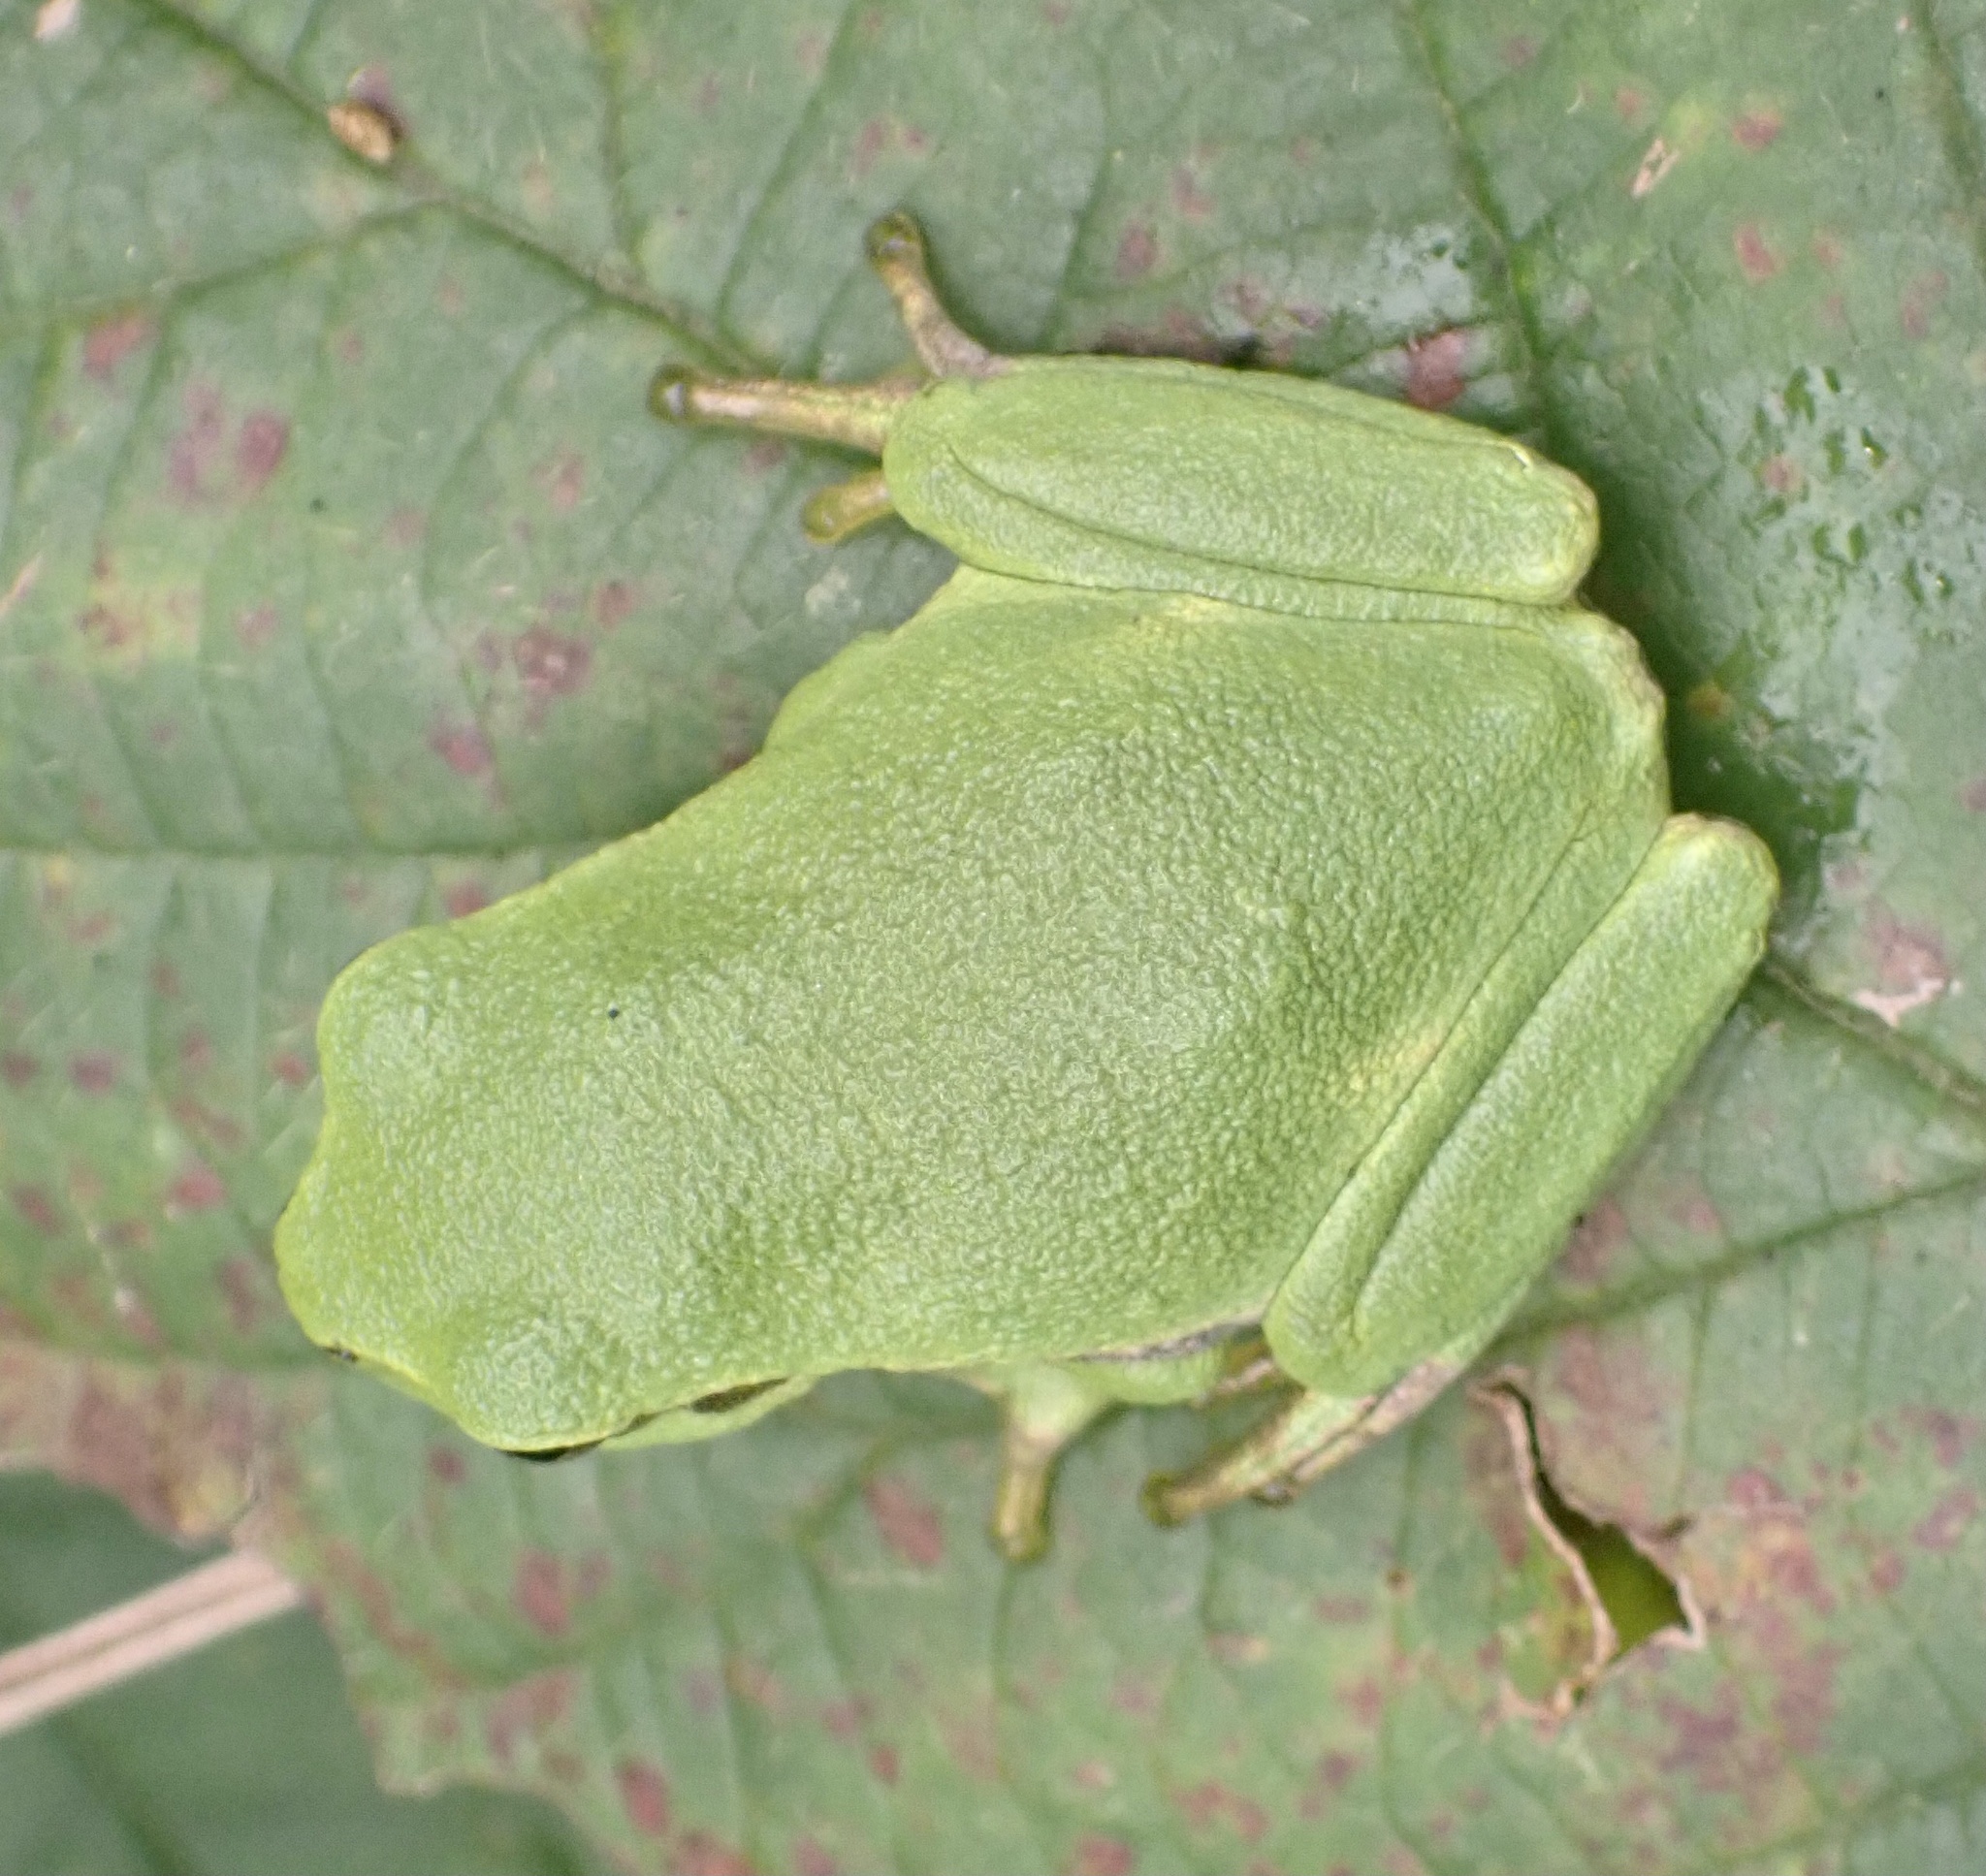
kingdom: Animalia
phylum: Chordata
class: Amphibia
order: Anura
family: Hylidae
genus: Hyla
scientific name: Hyla arborea
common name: Common tree frog
